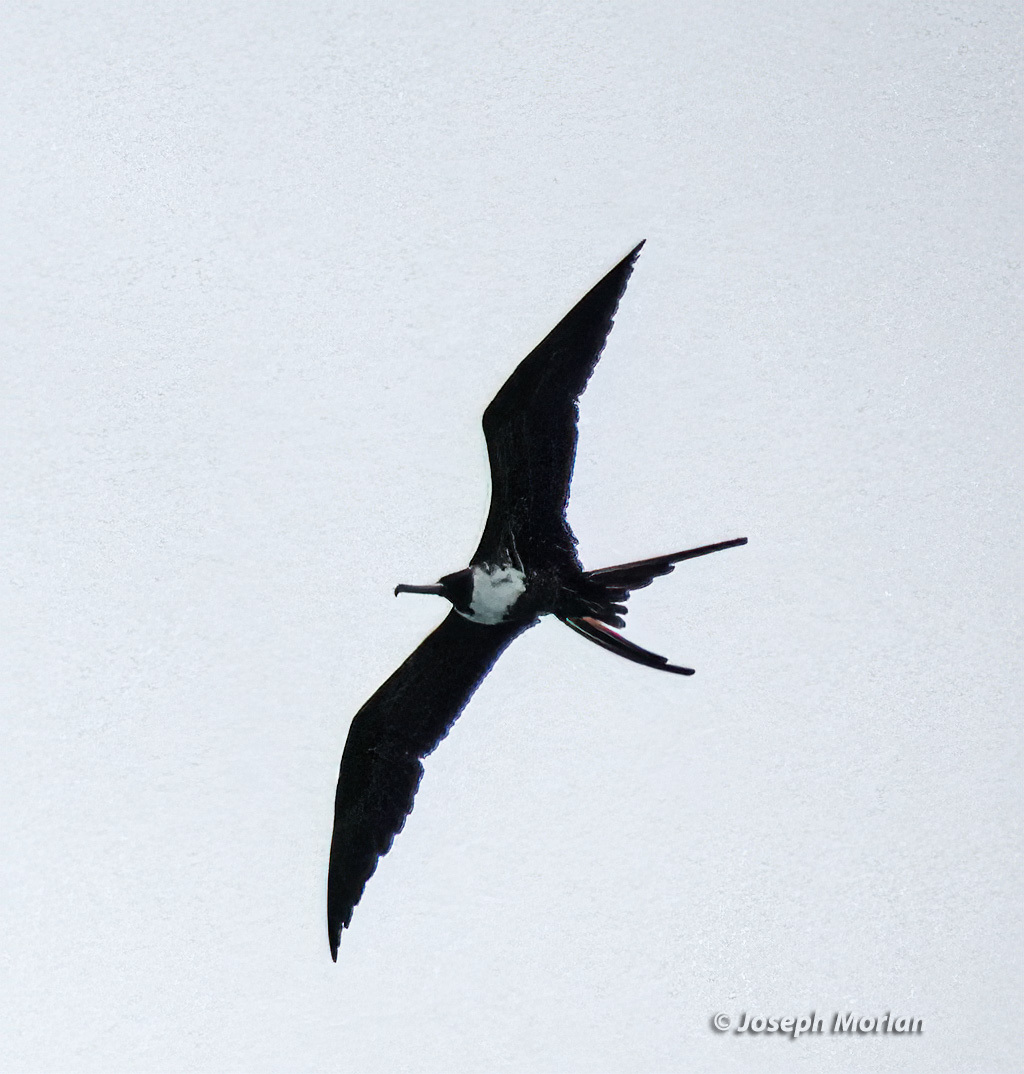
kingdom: Animalia
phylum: Chordata
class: Aves
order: Suliformes
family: Fregatidae
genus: Fregata
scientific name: Fregata magnificens
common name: Magnificent frigatebird
